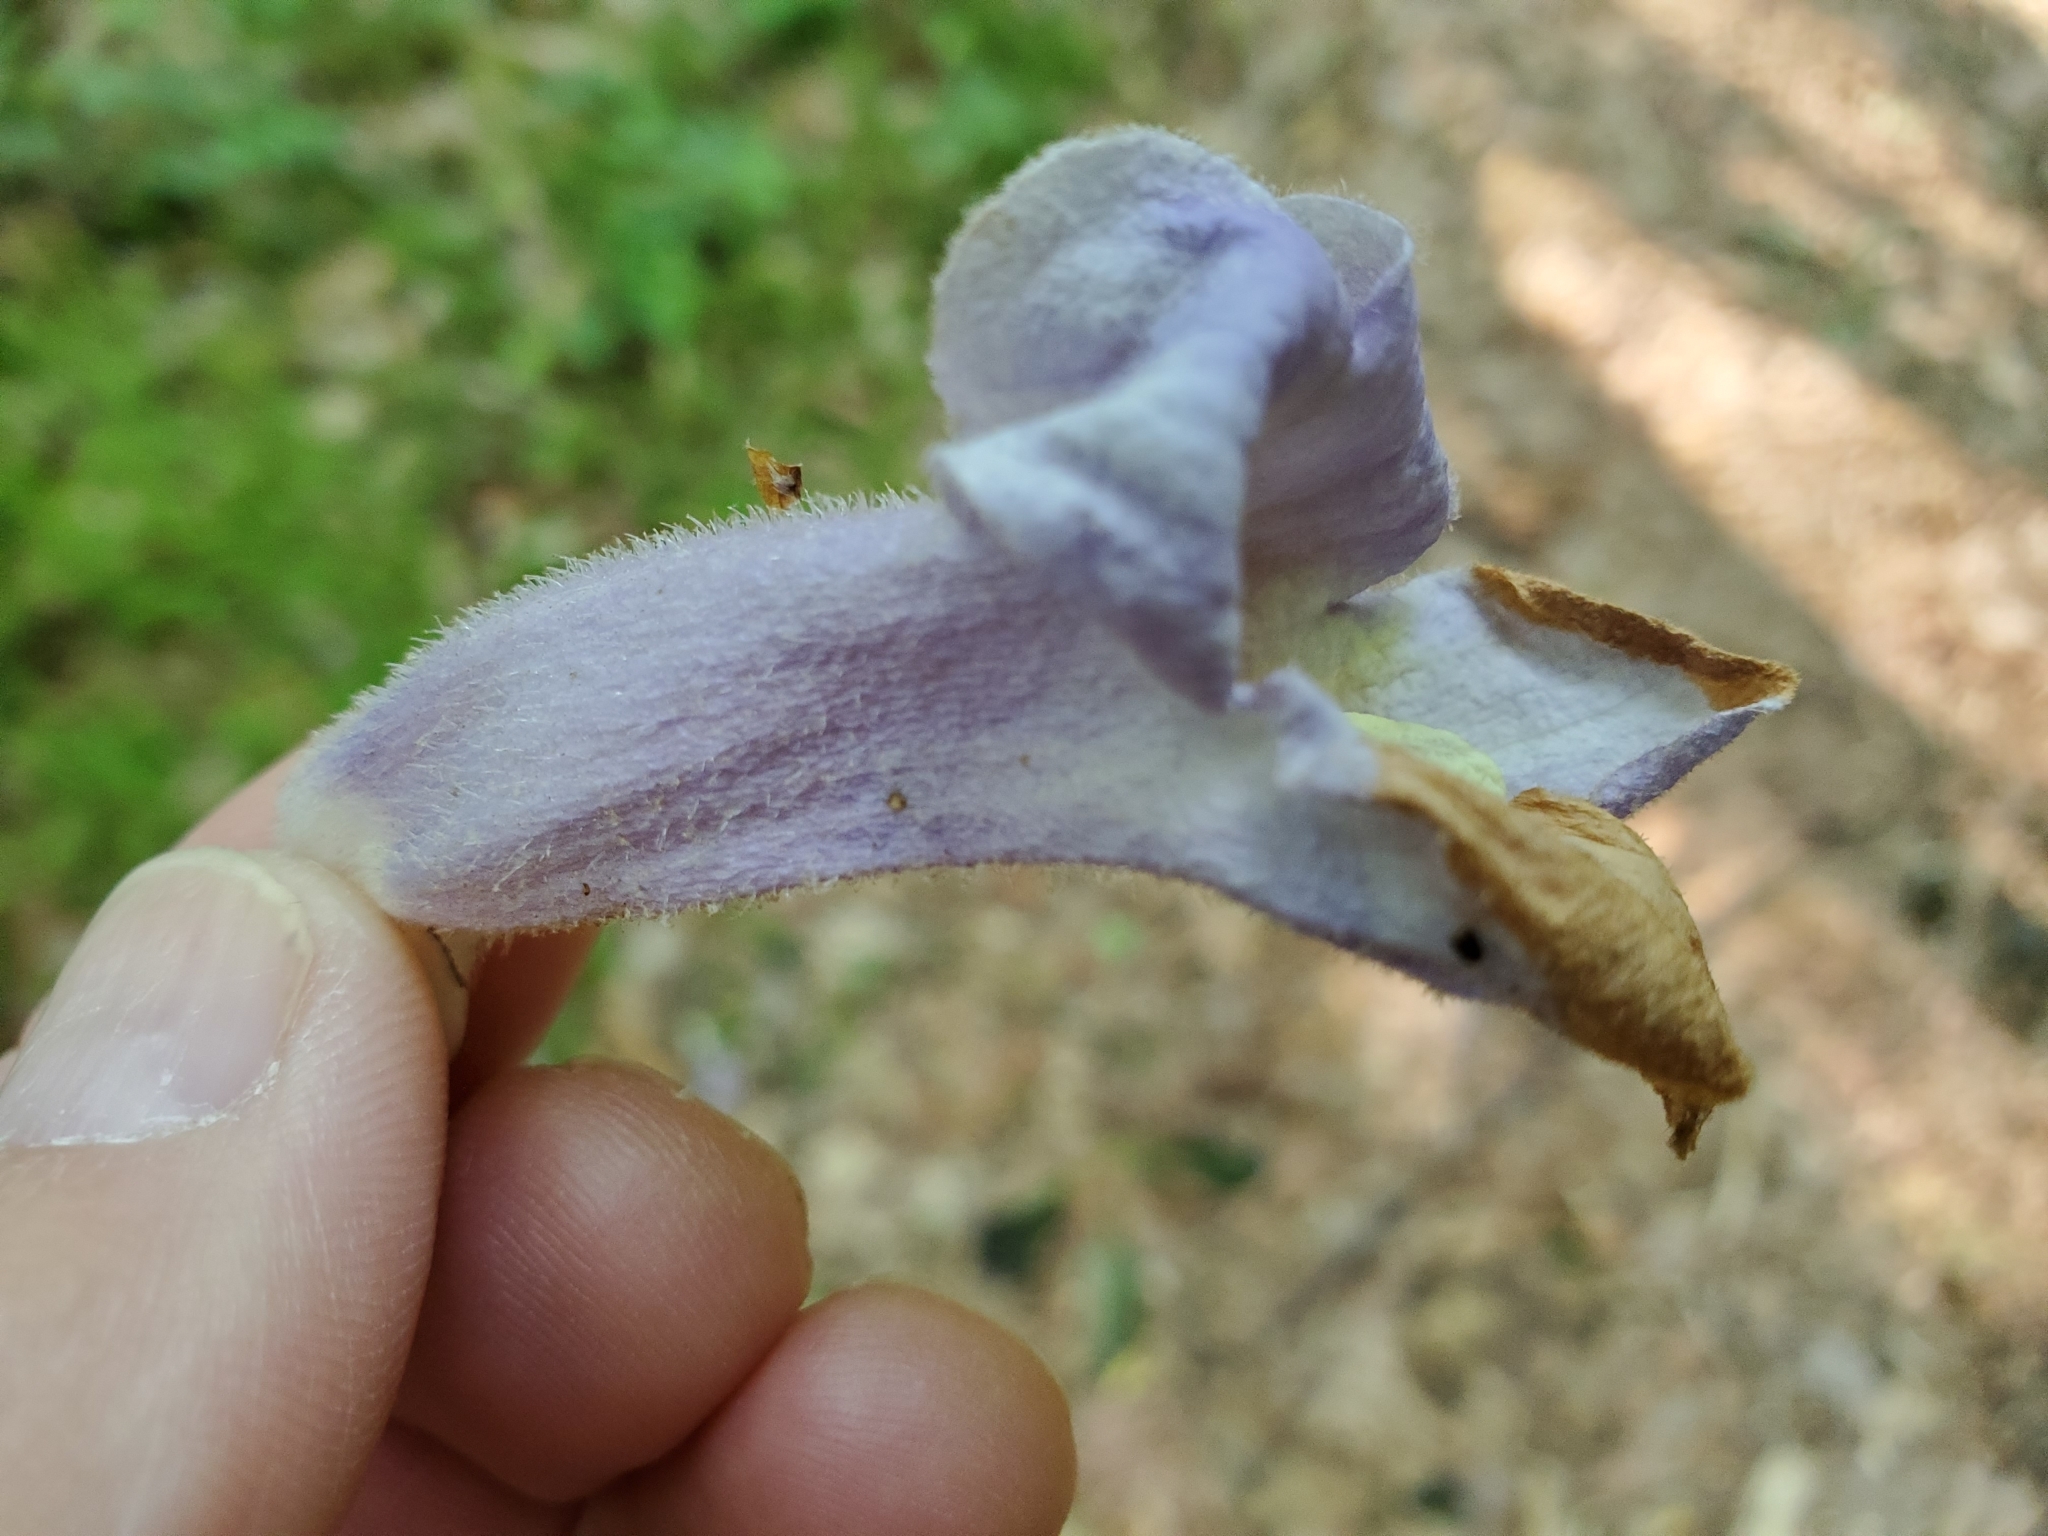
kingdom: Plantae
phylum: Tracheophyta
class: Magnoliopsida
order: Lamiales
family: Paulowniaceae
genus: Paulownia
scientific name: Paulownia tomentosa
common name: Foxglove-tree
